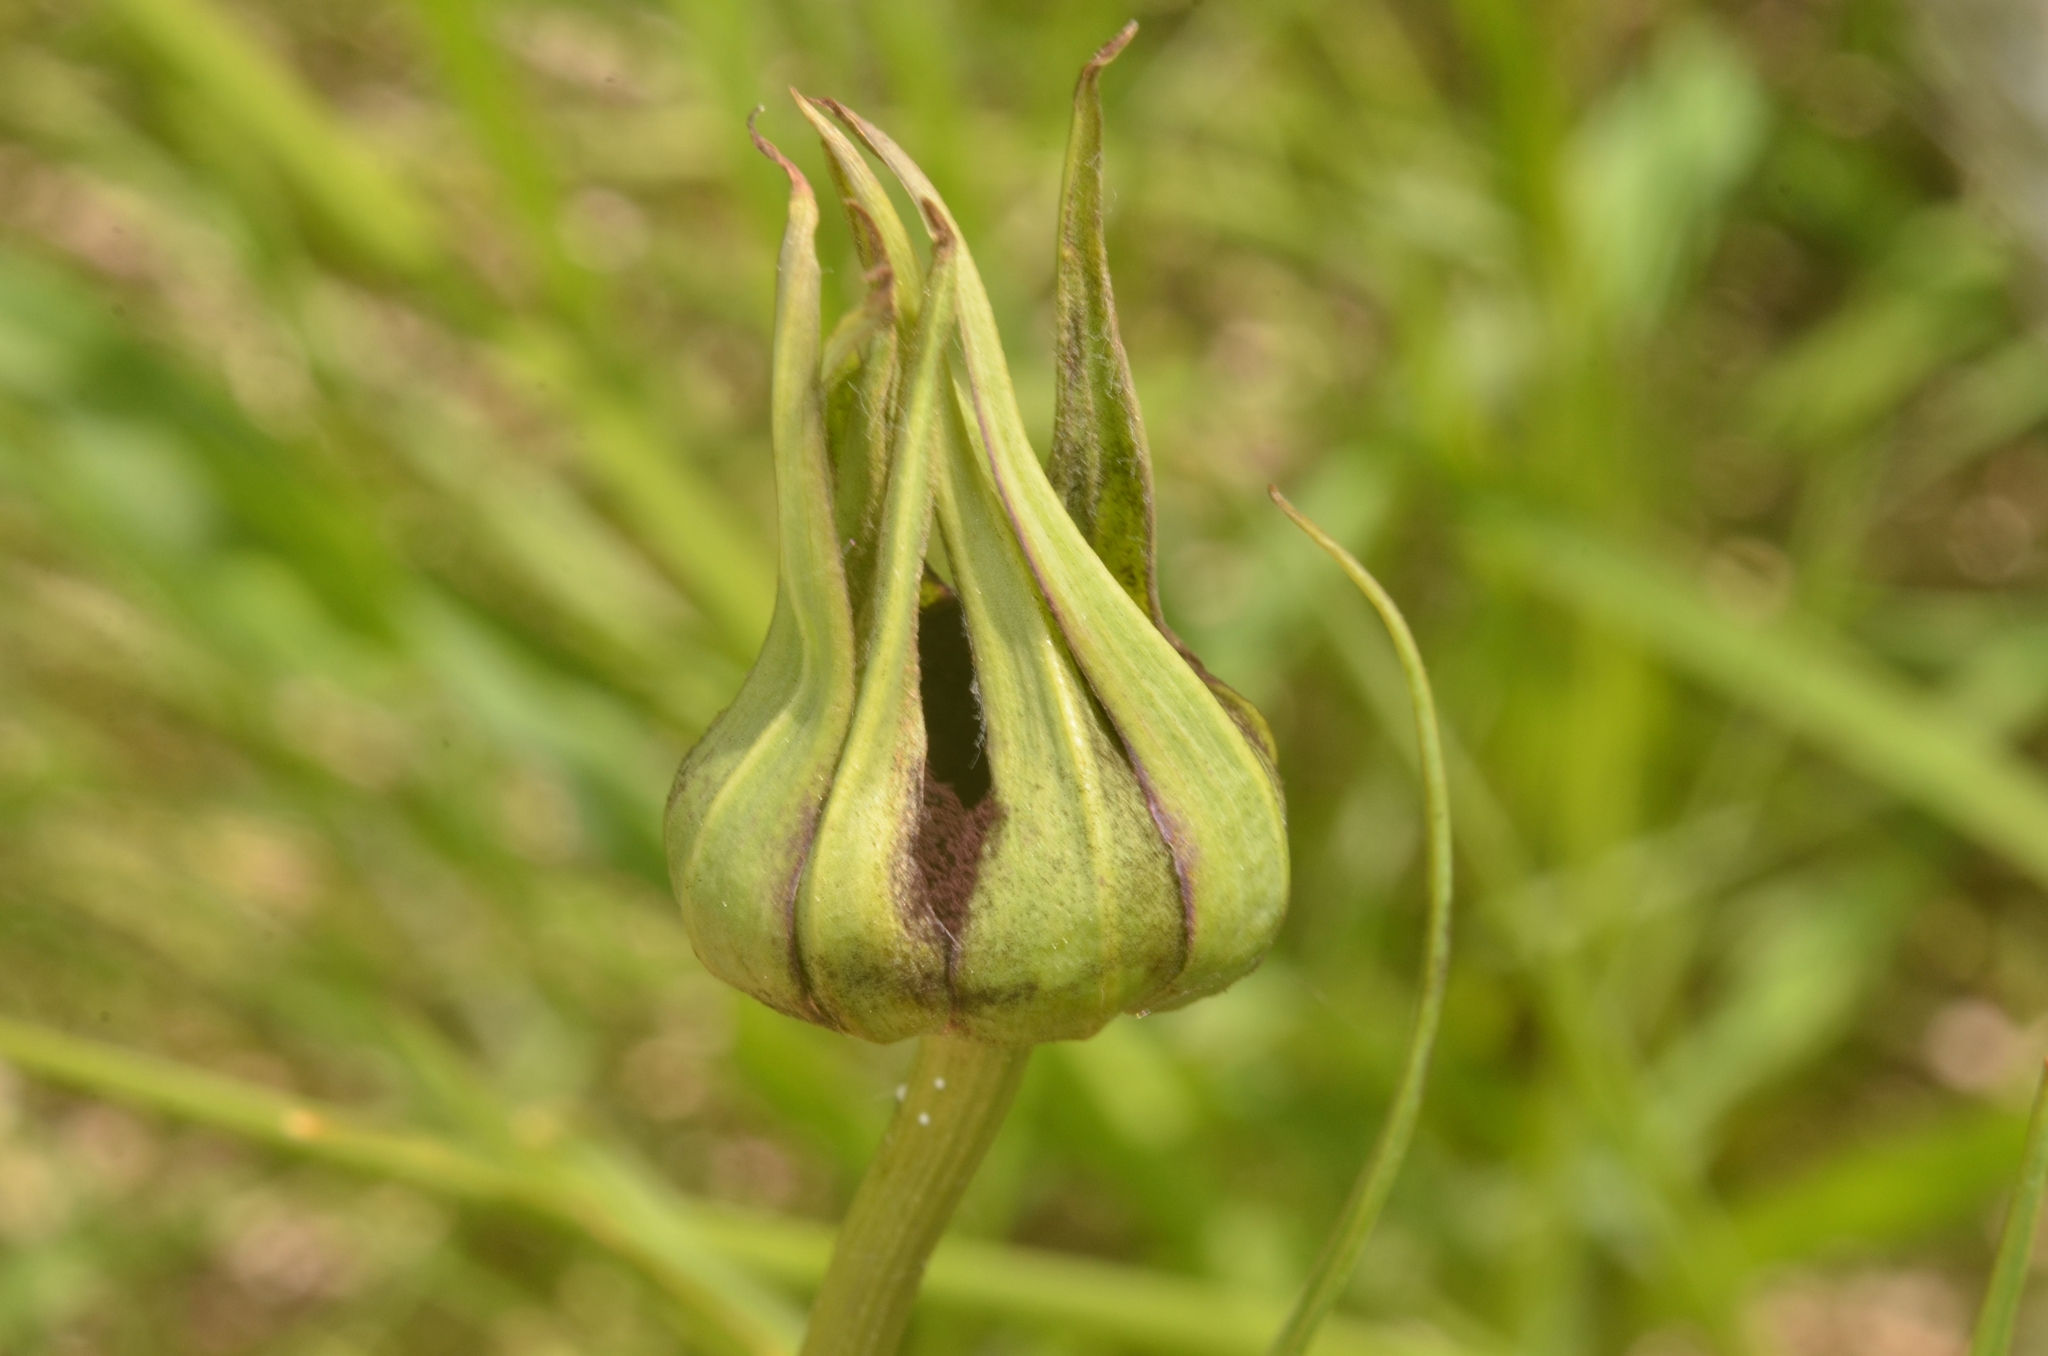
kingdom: Fungi
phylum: Basidiomycota
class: Microbotryomycetes
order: Microbotryales
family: Microbotryaceae
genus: Microbotryum
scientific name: Microbotryum tragopogonis-pratensis
